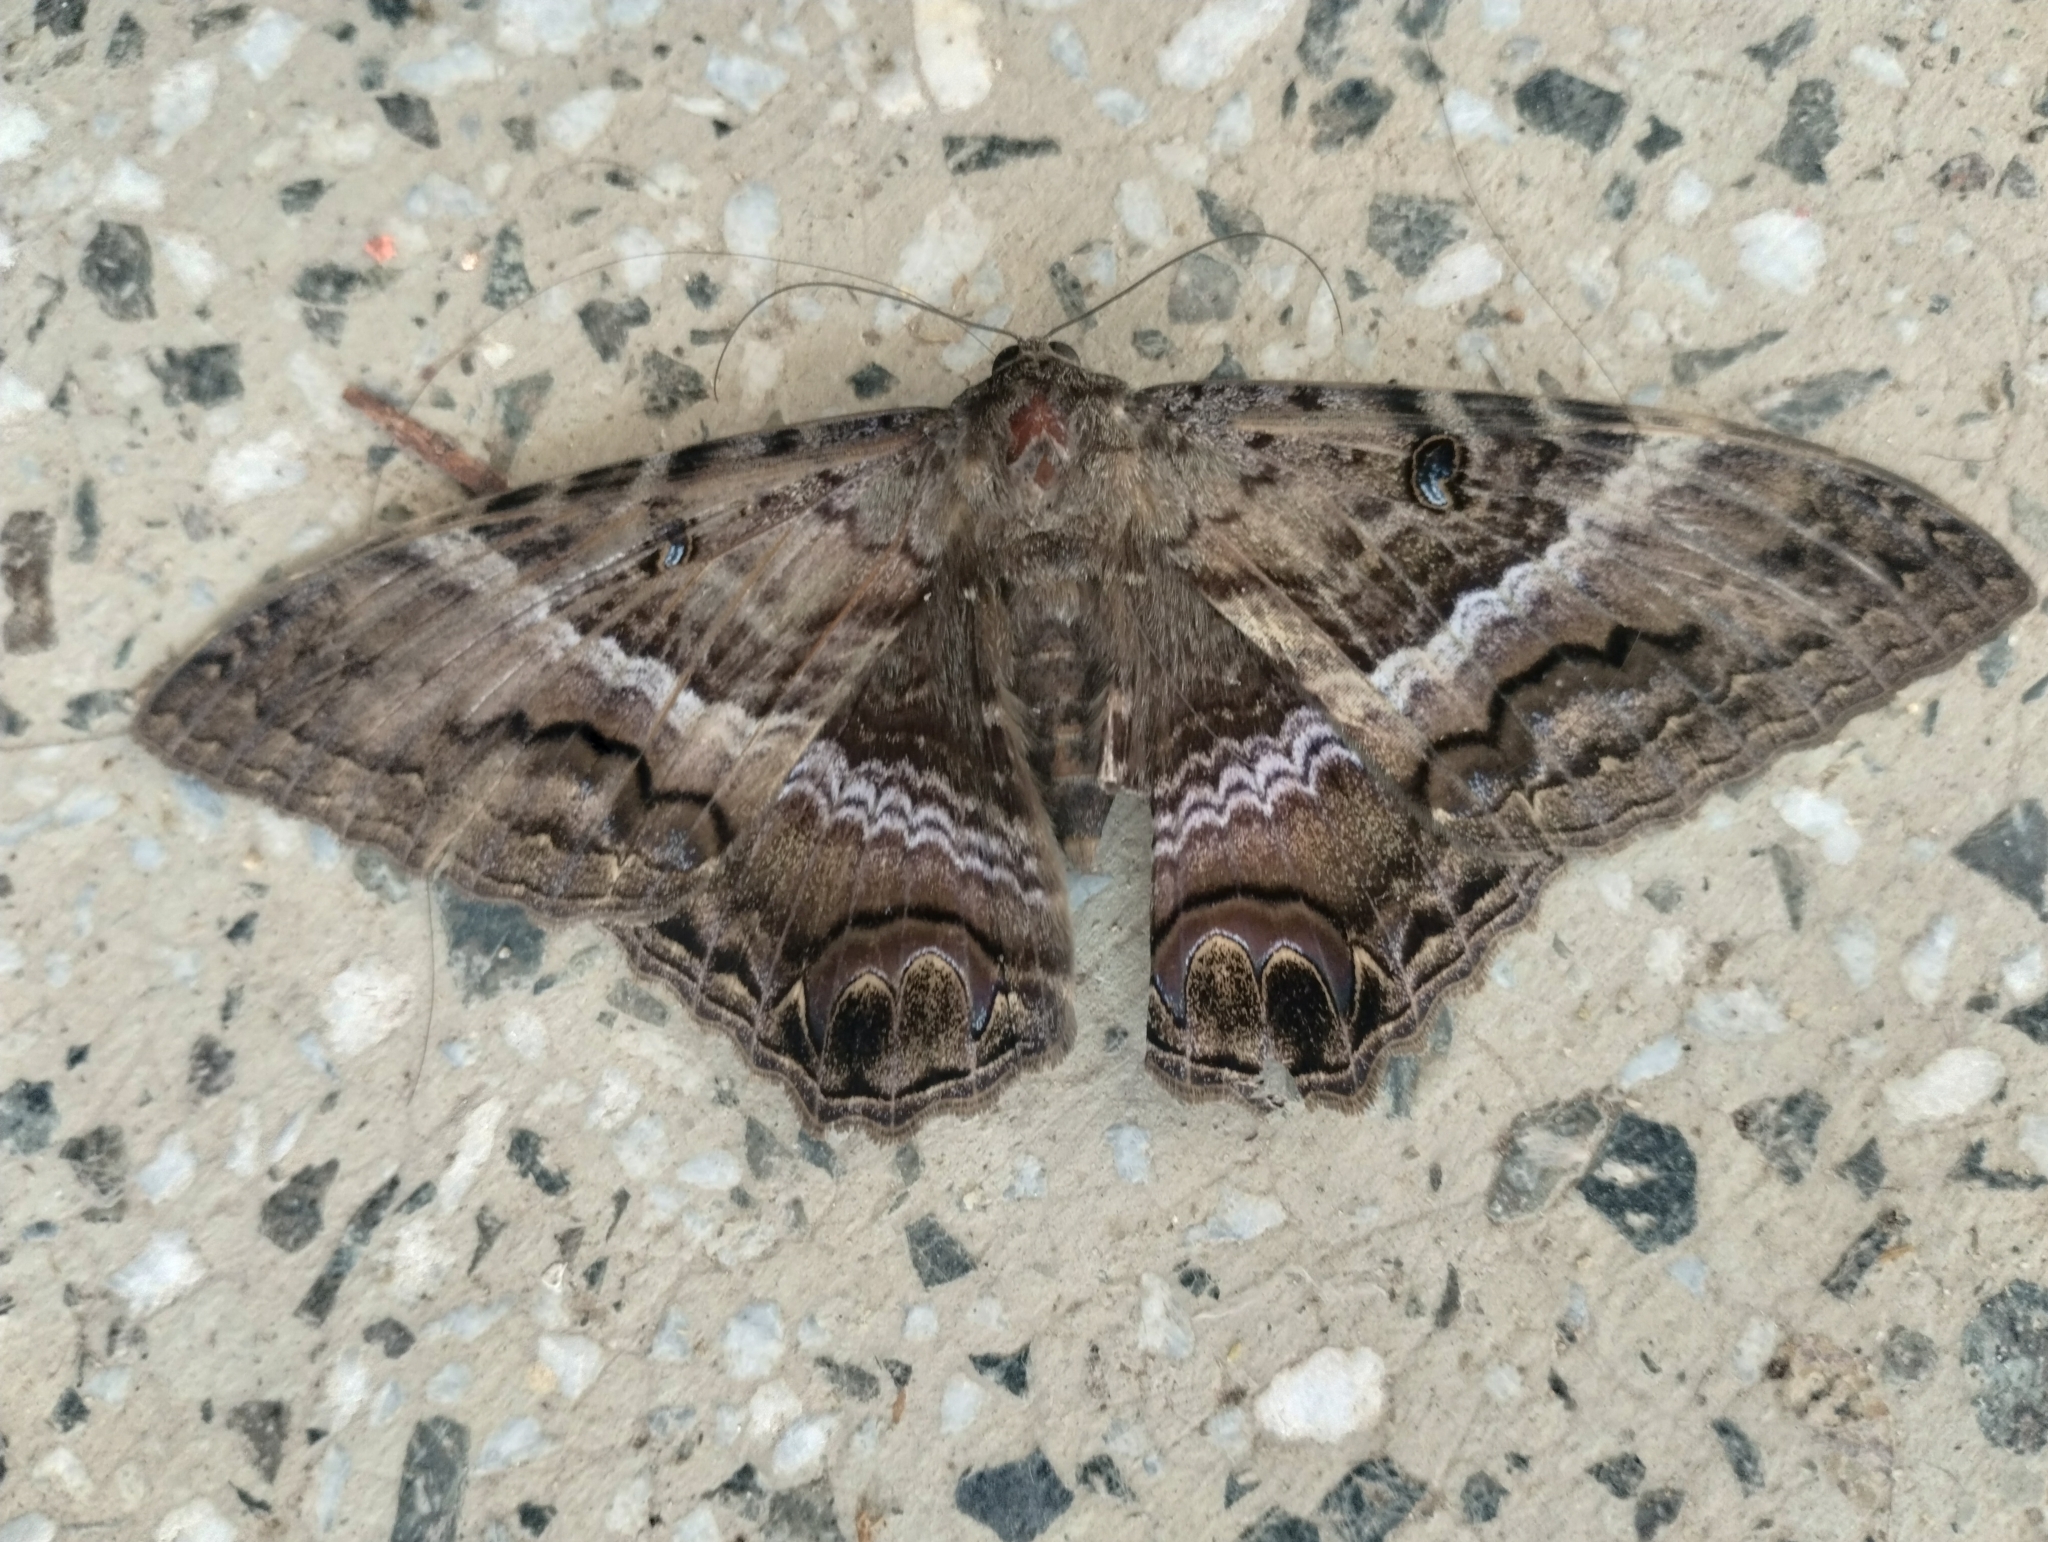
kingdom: Animalia
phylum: Arthropoda
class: Insecta
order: Lepidoptera
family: Erebidae
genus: Ascalapha
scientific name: Ascalapha odorata
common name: Black witch
